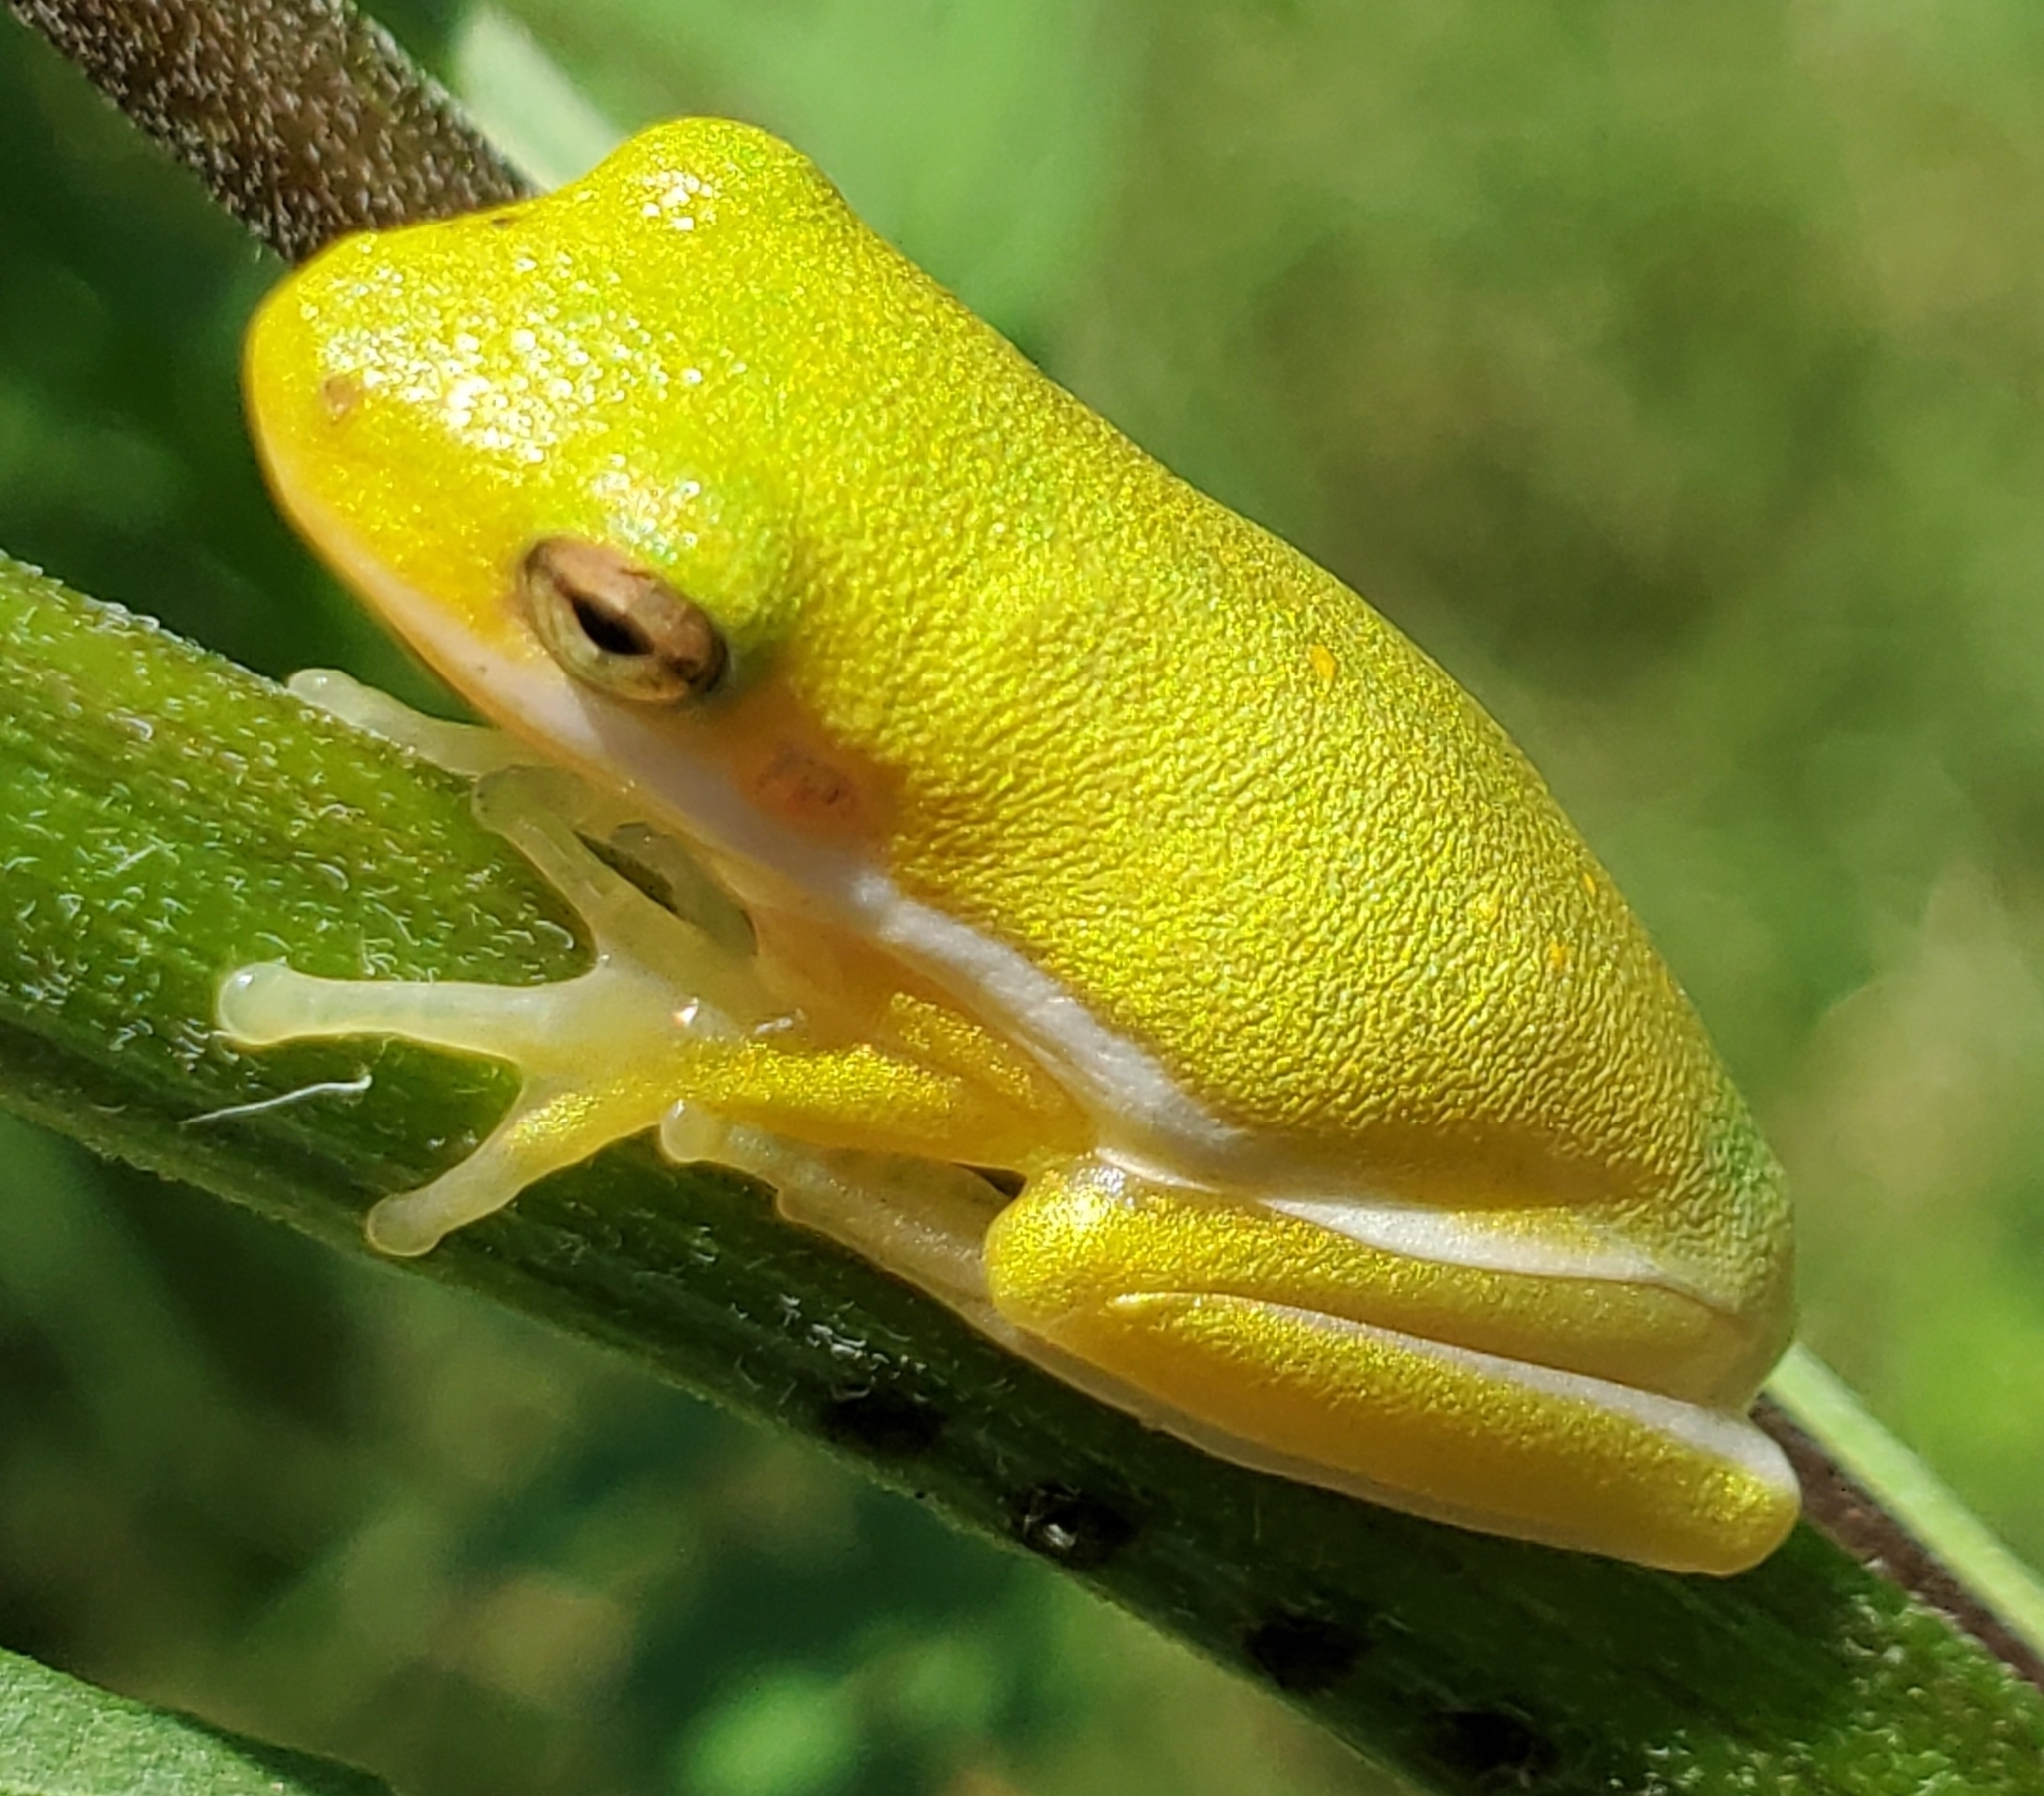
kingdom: Animalia
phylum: Chordata
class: Amphibia
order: Anura
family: Hylidae
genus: Dryophytes
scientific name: Dryophytes cinereus
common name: Green treefrog
